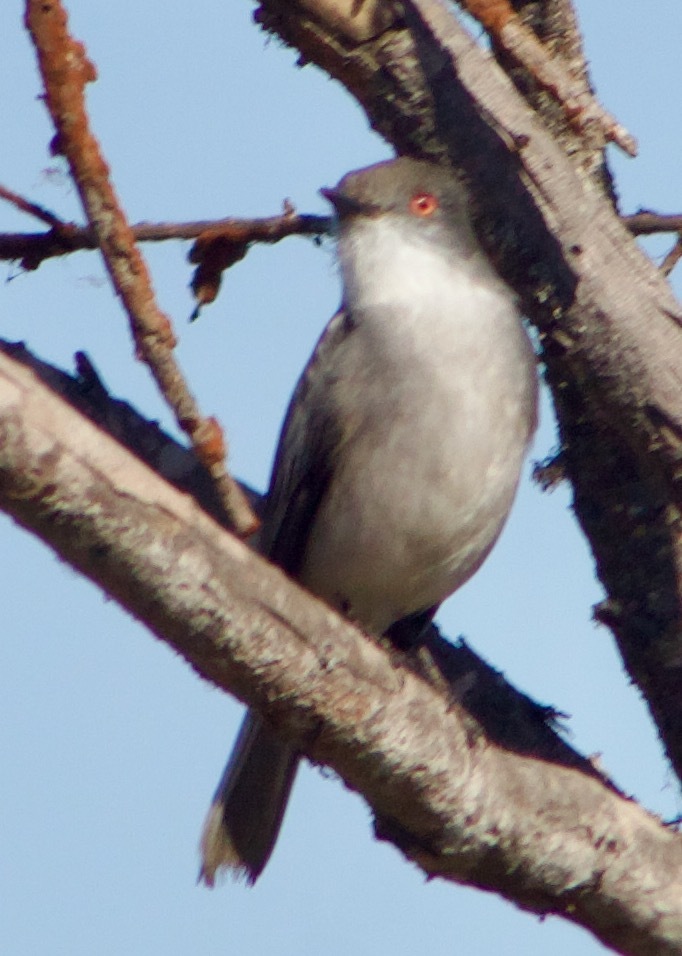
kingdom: Animalia
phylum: Chordata
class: Aves
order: Passeriformes
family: Tyrannidae
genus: Xolmis
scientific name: Xolmis pyrope
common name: Fire-eyed diucon
